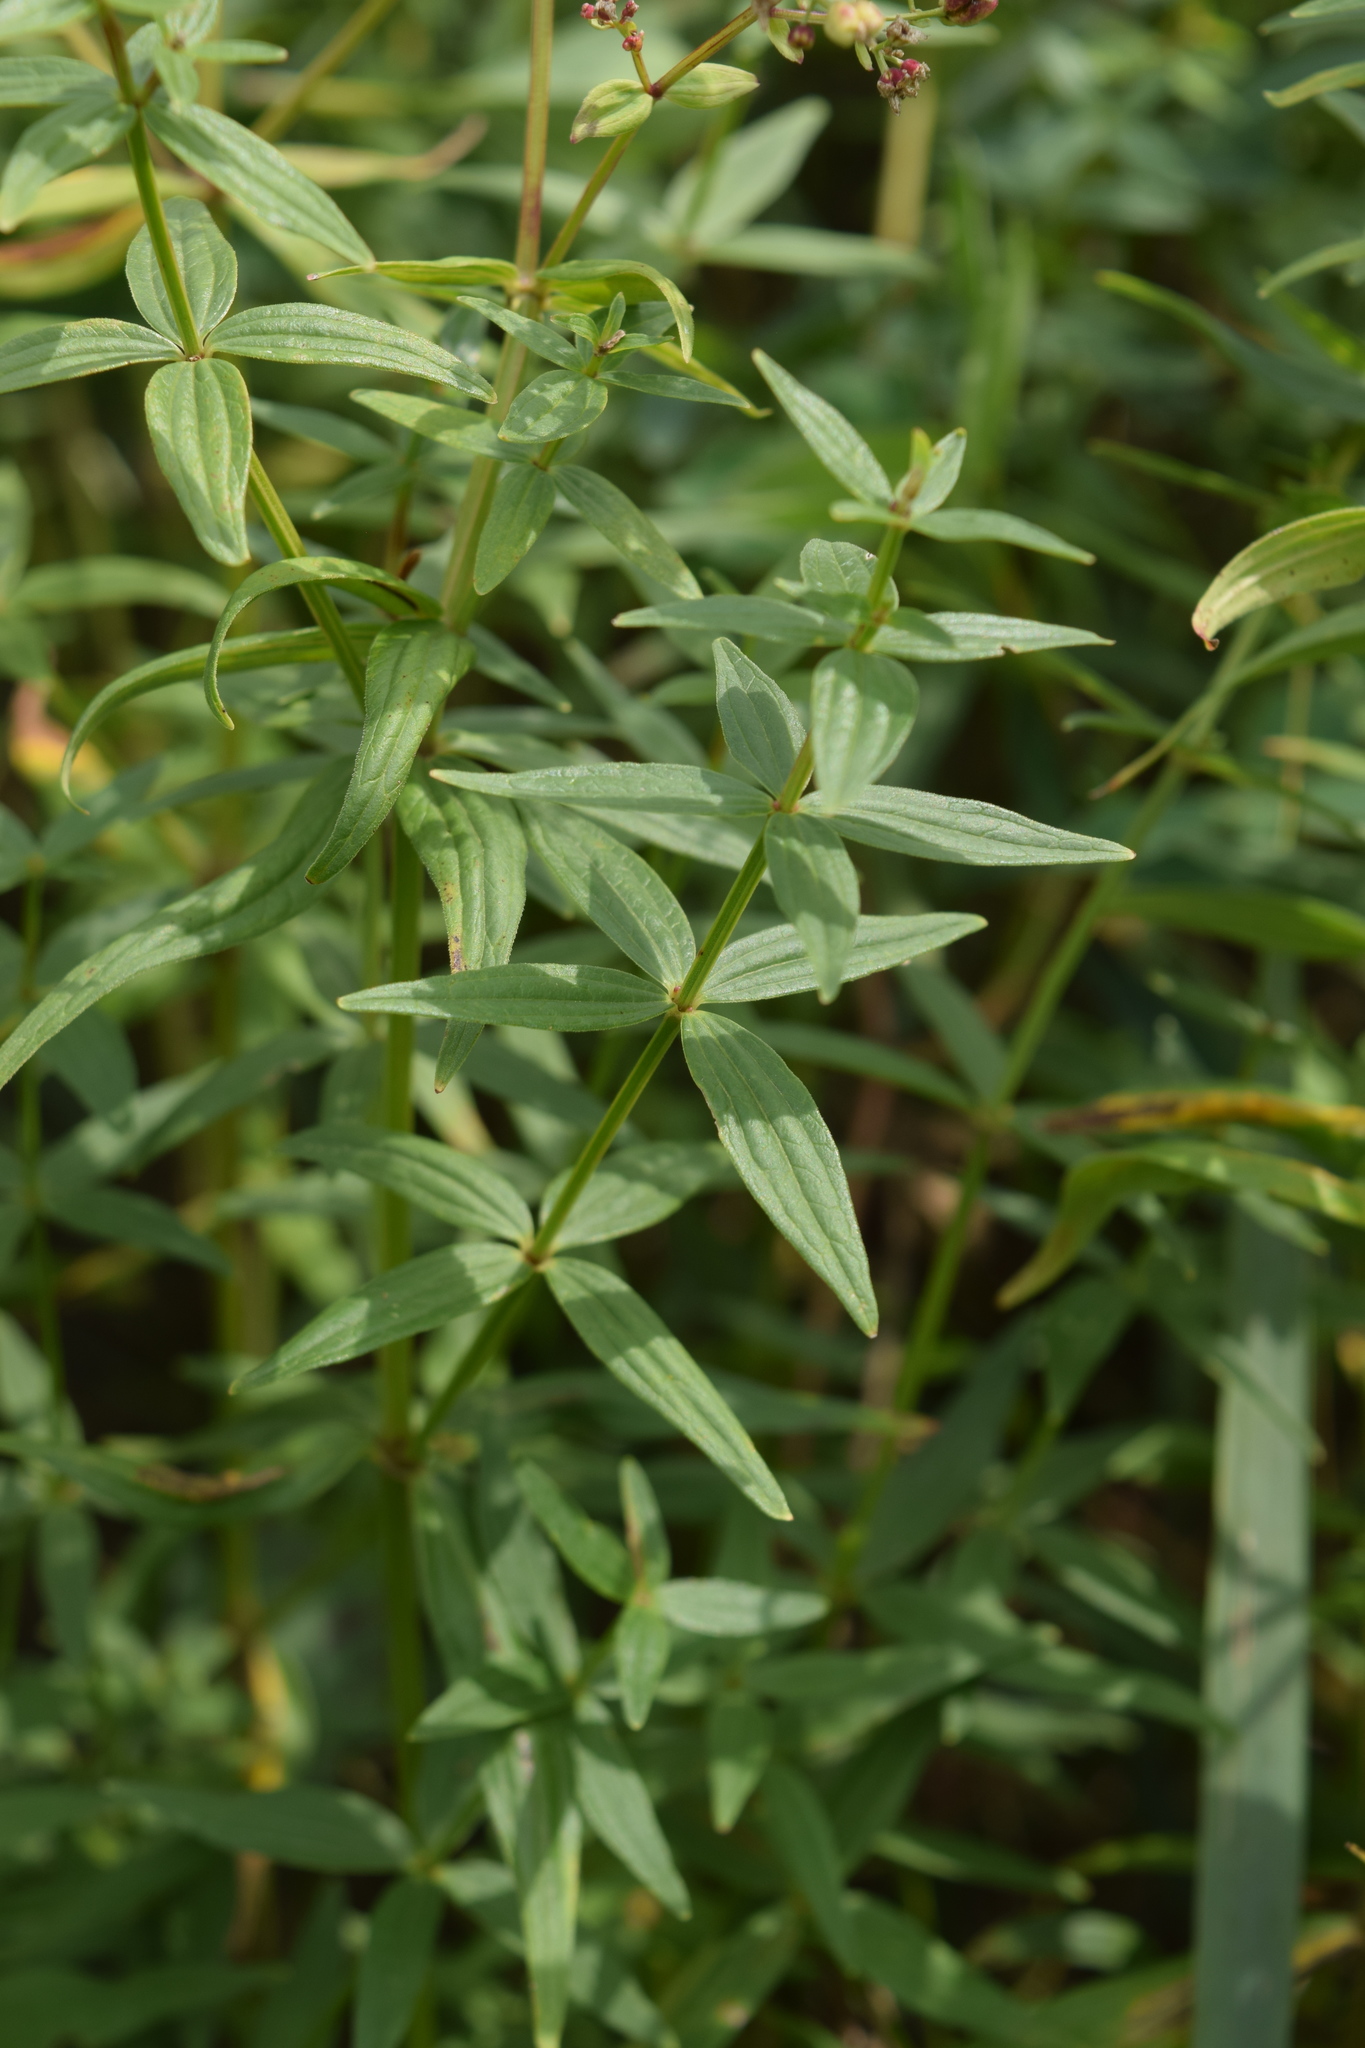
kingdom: Plantae
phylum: Tracheophyta
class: Magnoliopsida
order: Gentianales
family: Rubiaceae
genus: Galium
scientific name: Galium boreale
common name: Northern bedstraw
